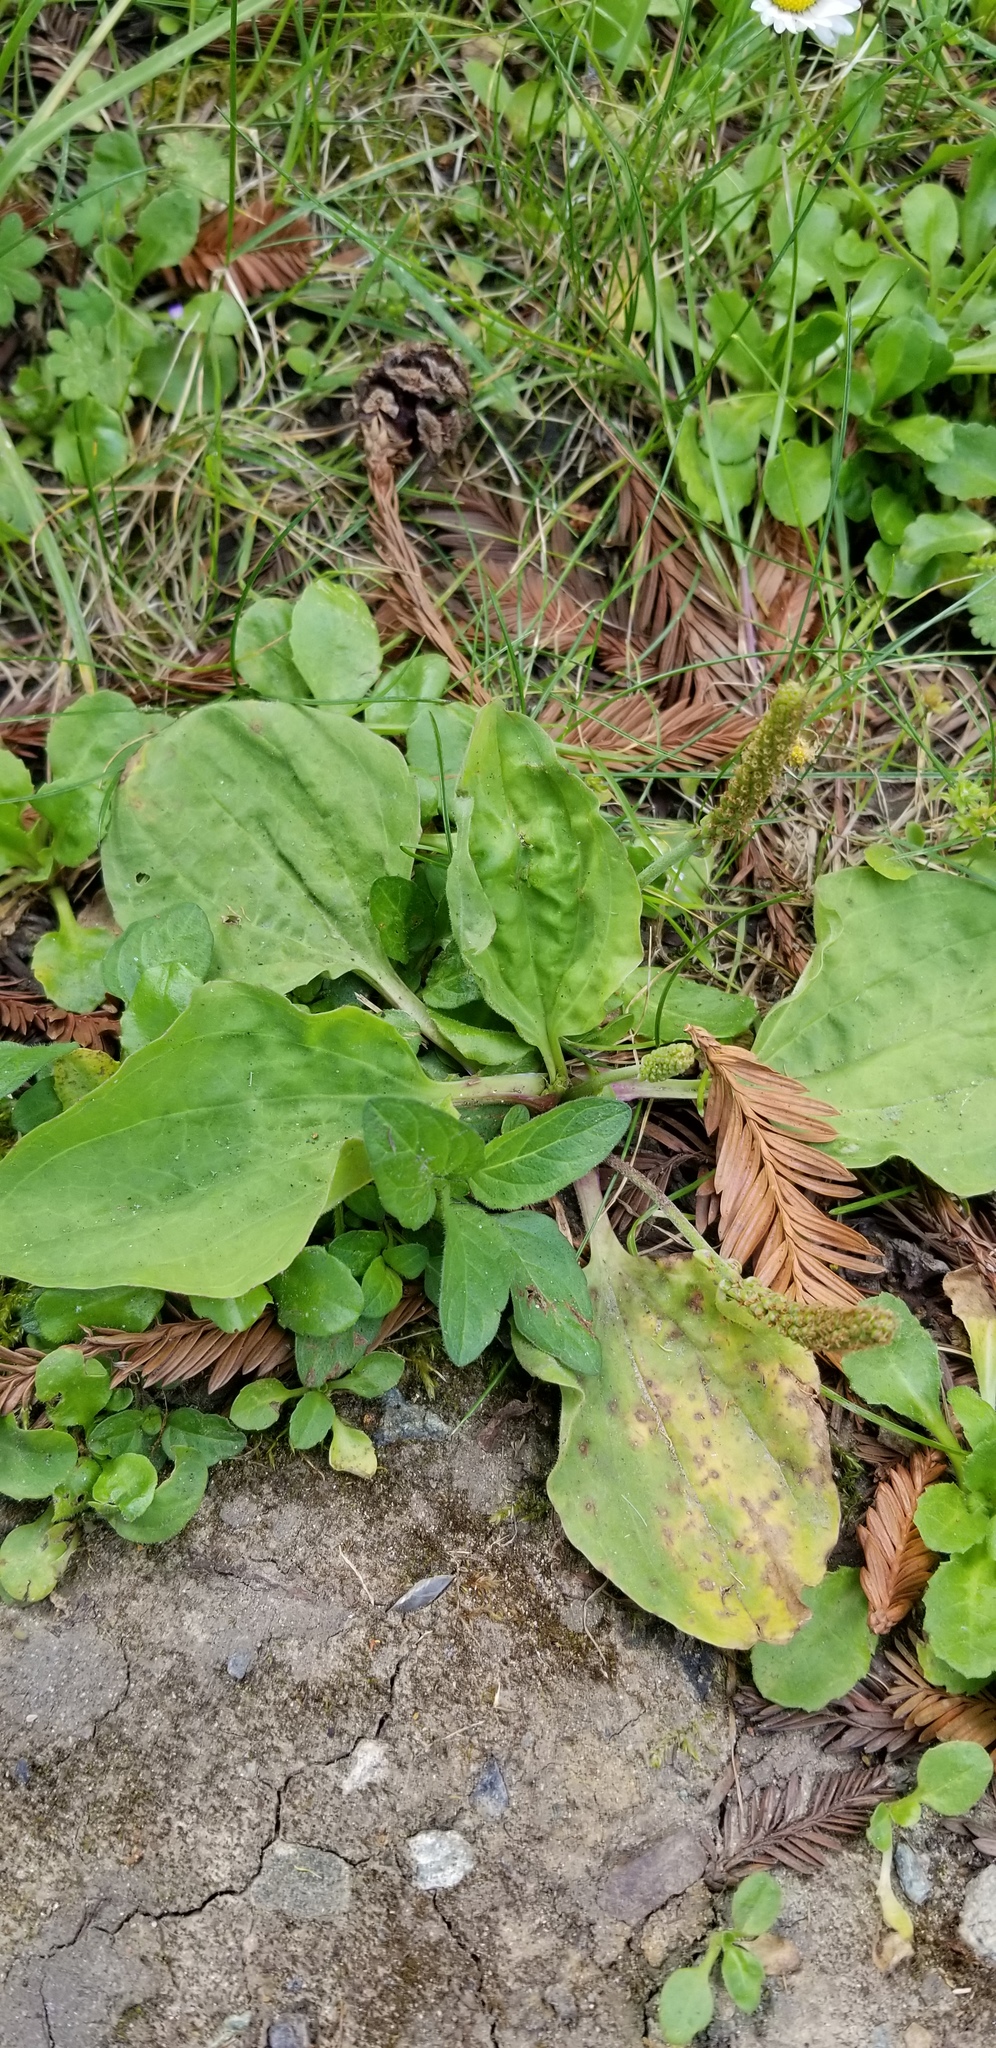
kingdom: Plantae
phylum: Tracheophyta
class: Magnoliopsida
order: Lamiales
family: Plantaginaceae
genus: Plantago
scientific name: Plantago major
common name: Common plantain
